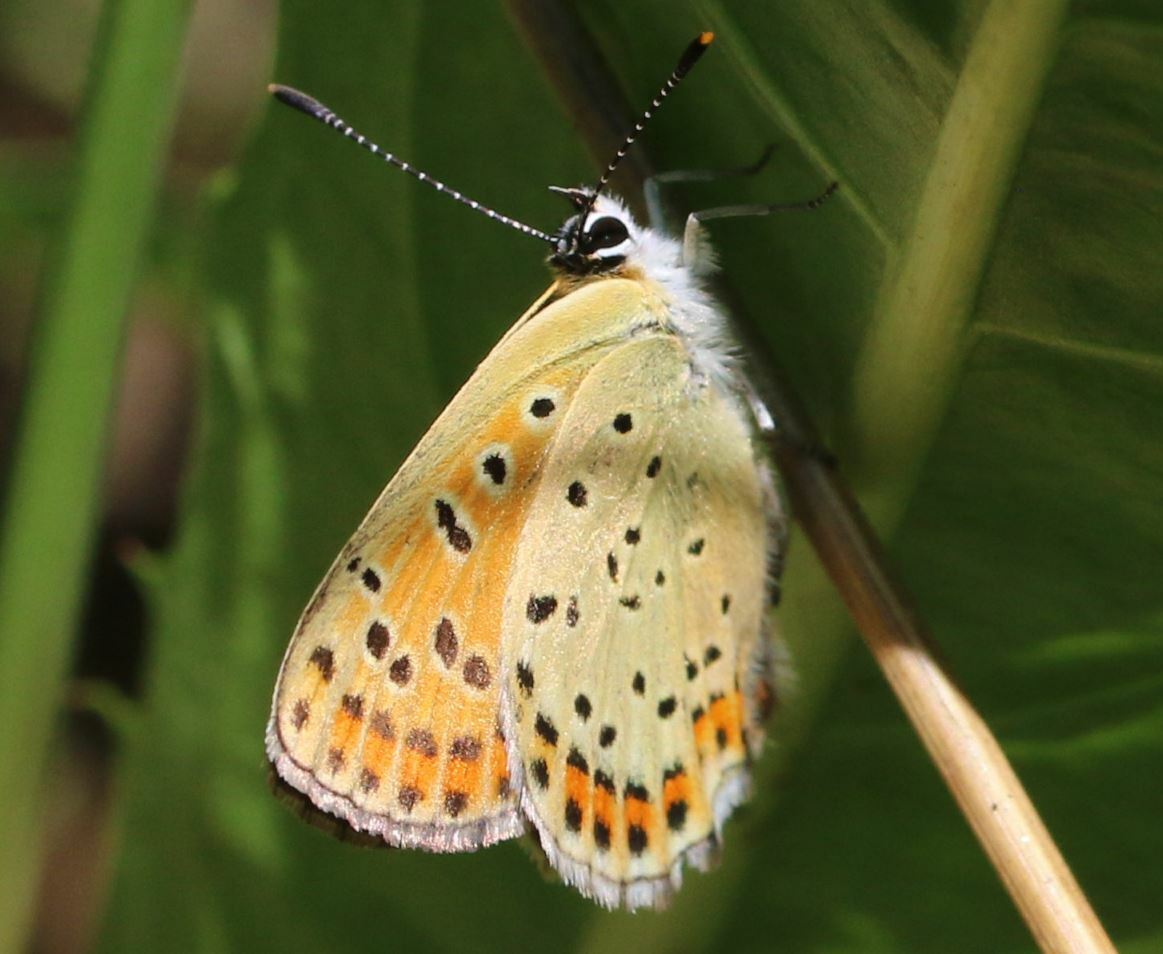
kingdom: Animalia
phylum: Arthropoda
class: Insecta
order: Lepidoptera
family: Lycaenidae
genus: Loweia
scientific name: Loweia tityrus
